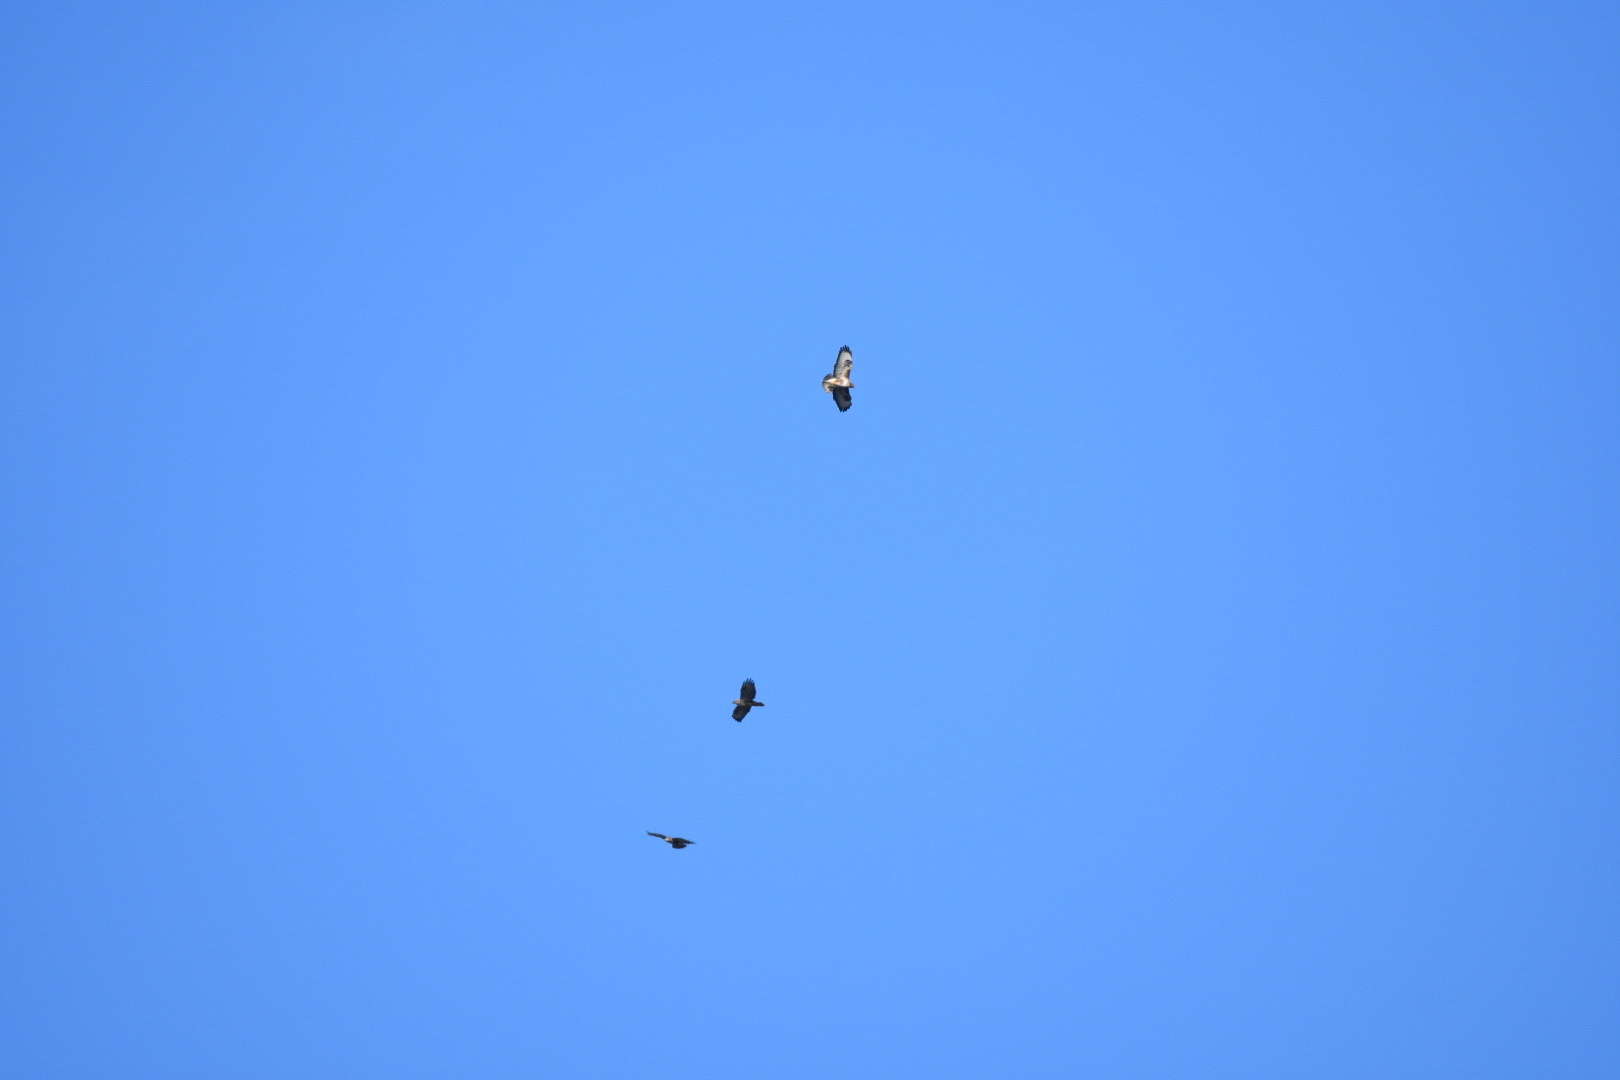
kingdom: Animalia
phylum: Chordata
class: Aves
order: Accipitriformes
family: Accipitridae
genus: Buteo
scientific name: Buteo buteo
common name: Common buzzard
